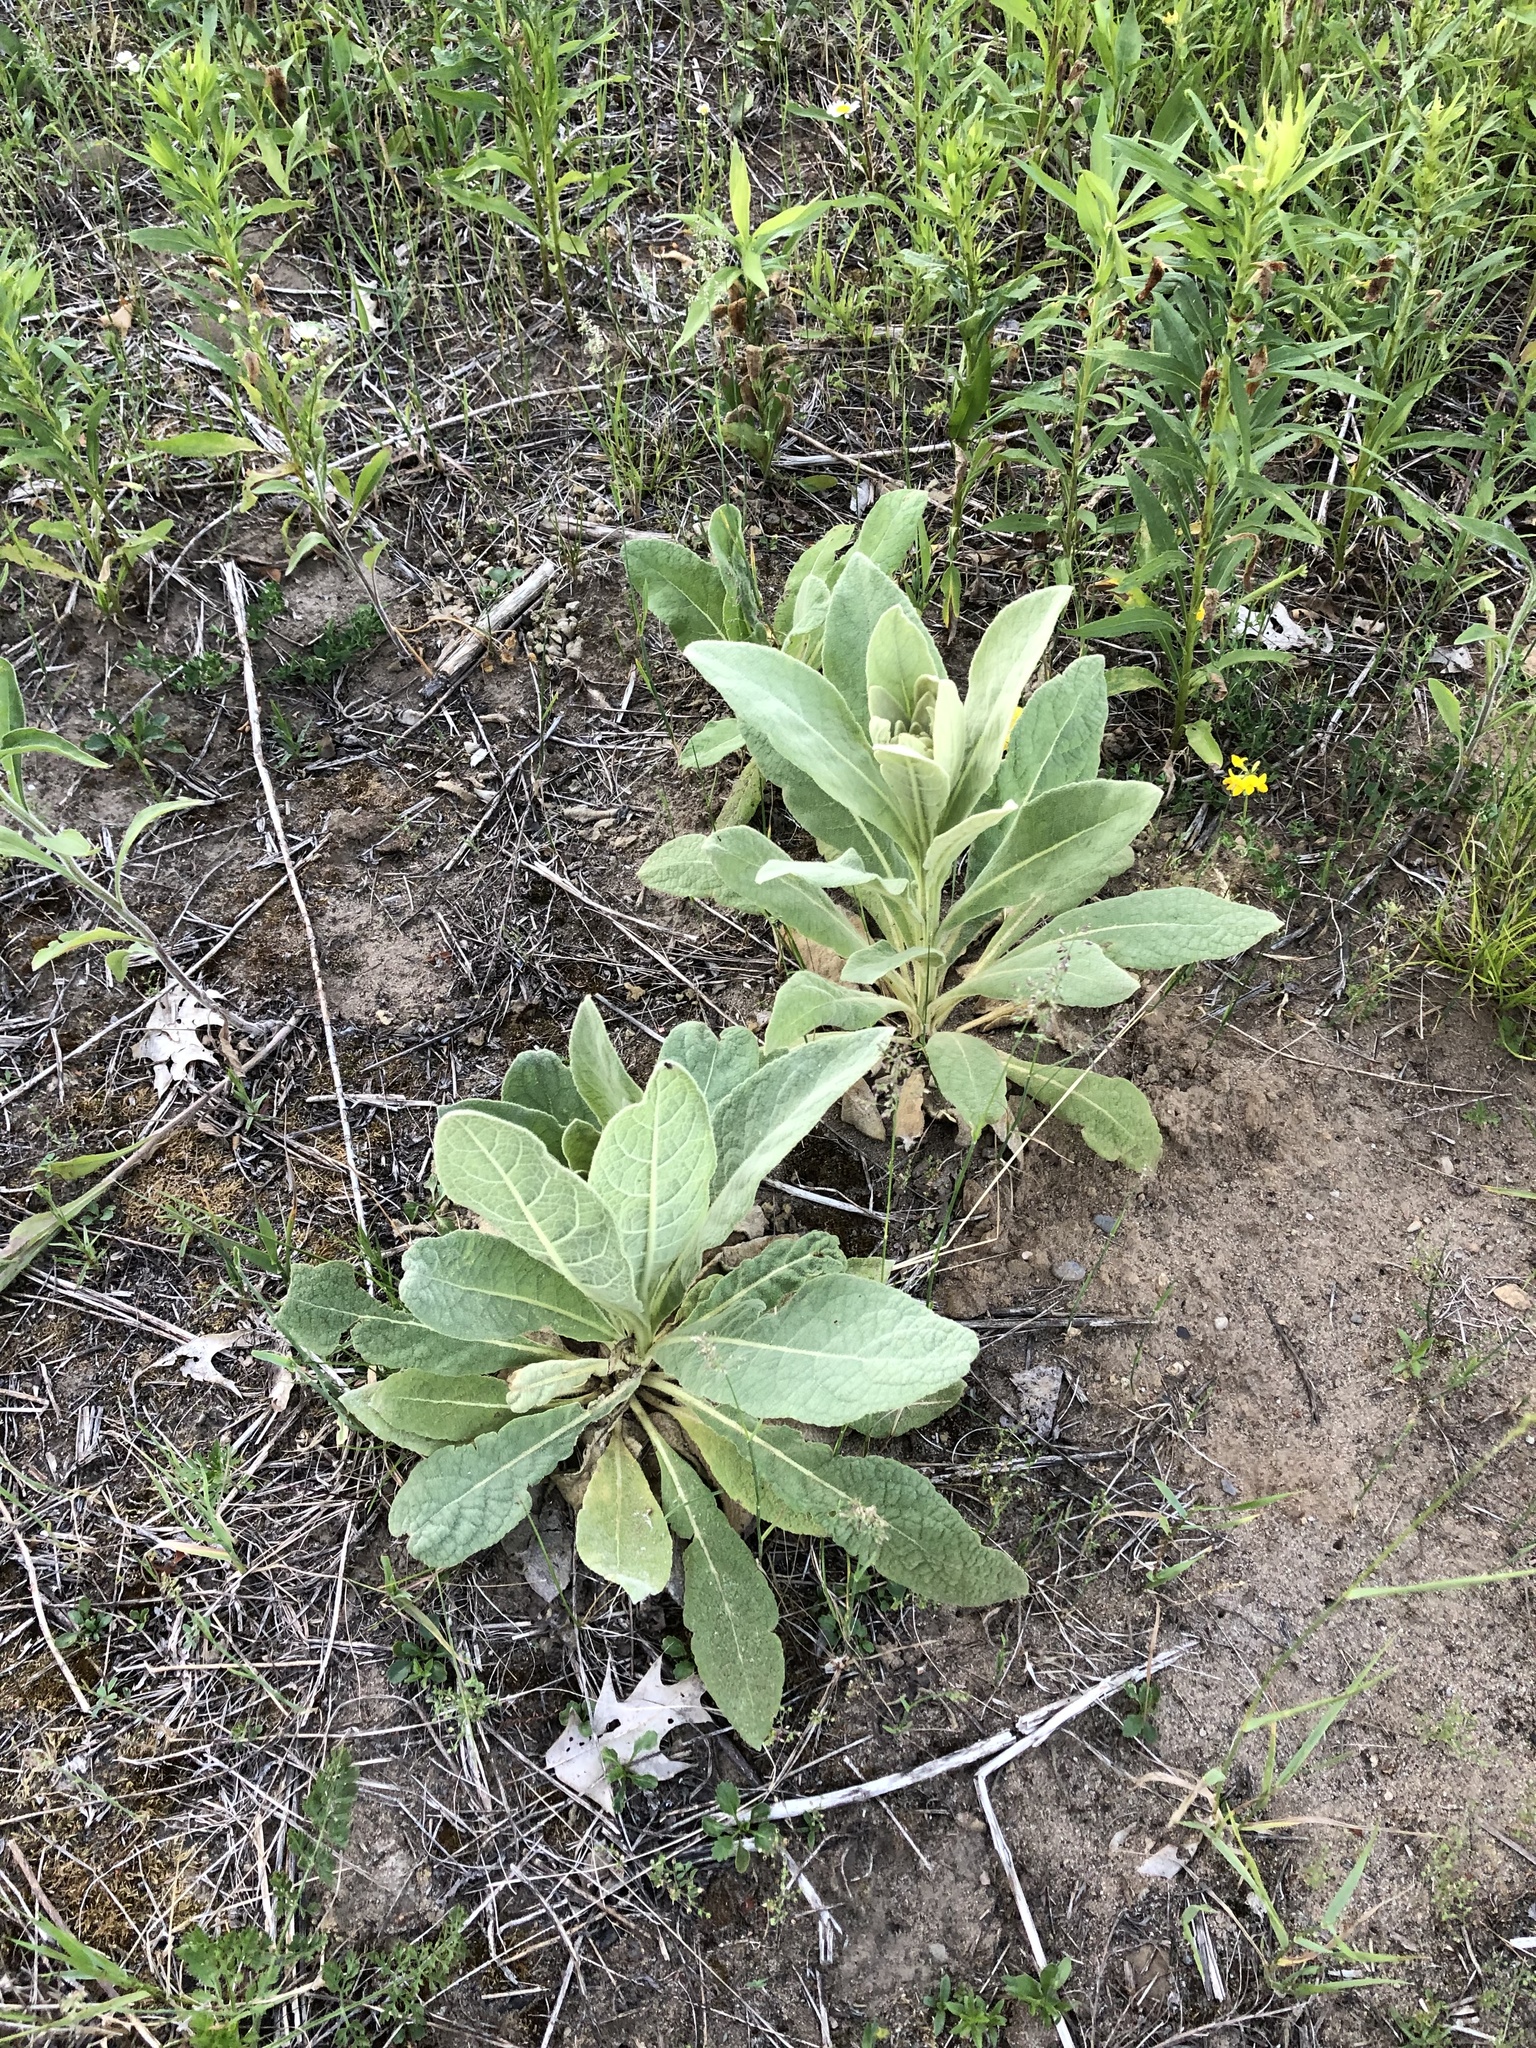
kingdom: Plantae
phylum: Tracheophyta
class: Magnoliopsida
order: Lamiales
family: Scrophulariaceae
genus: Verbascum
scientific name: Verbascum thapsus
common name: Common mullein
